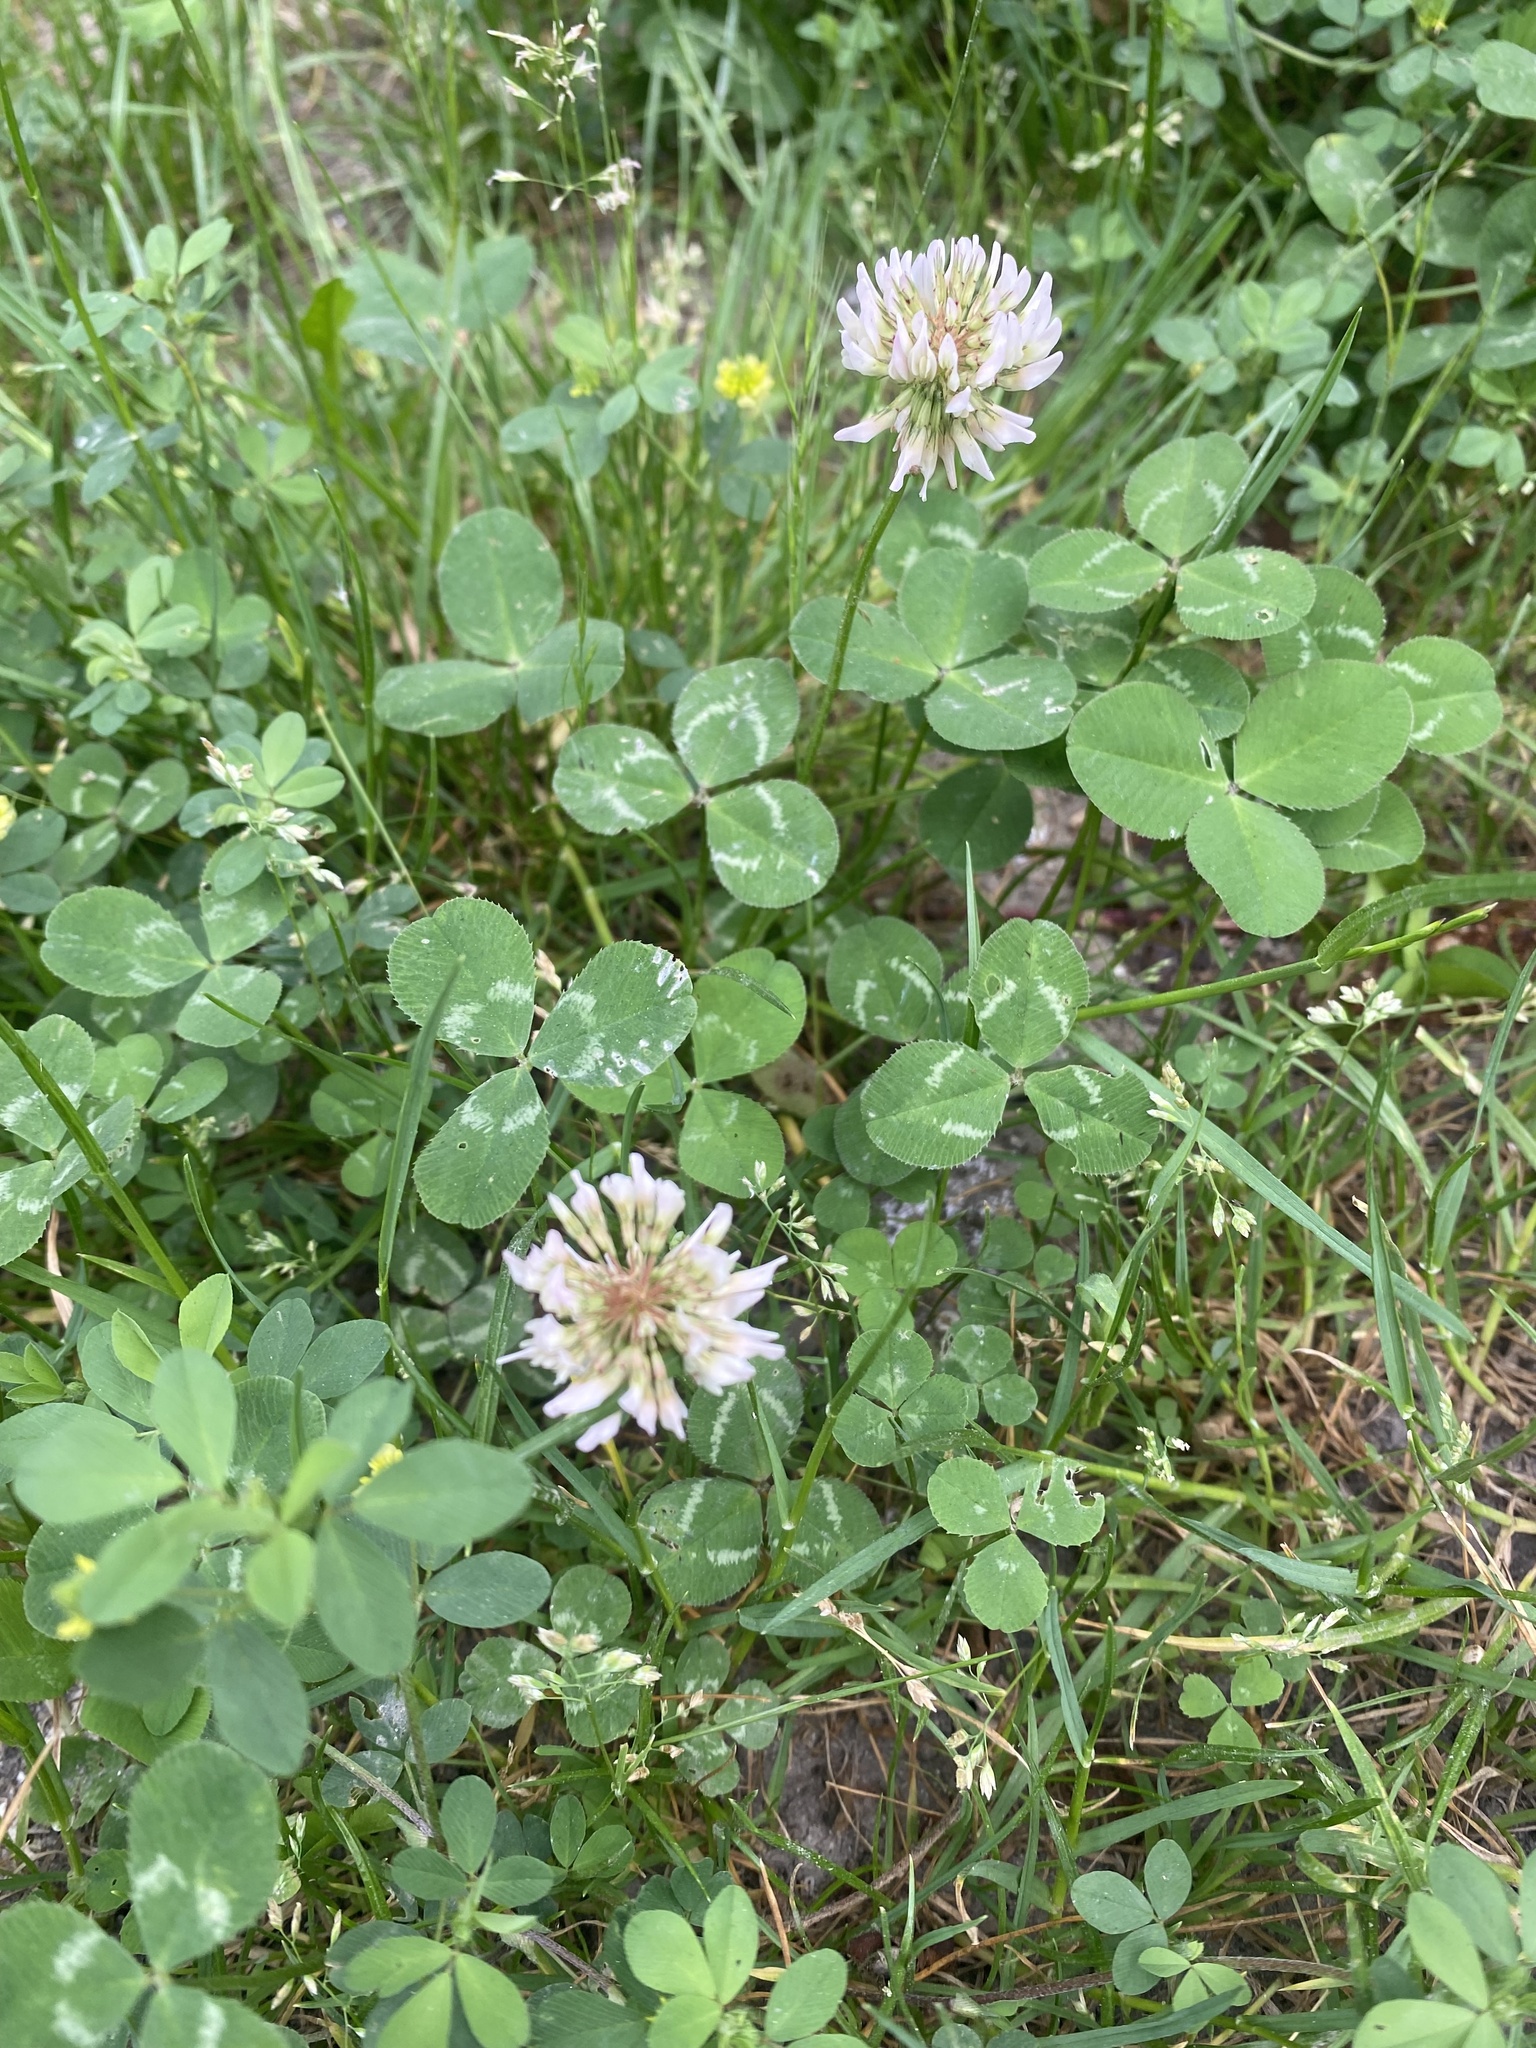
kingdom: Plantae
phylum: Tracheophyta
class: Magnoliopsida
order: Fabales
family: Fabaceae
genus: Trifolium
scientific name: Trifolium repens
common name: White clover
